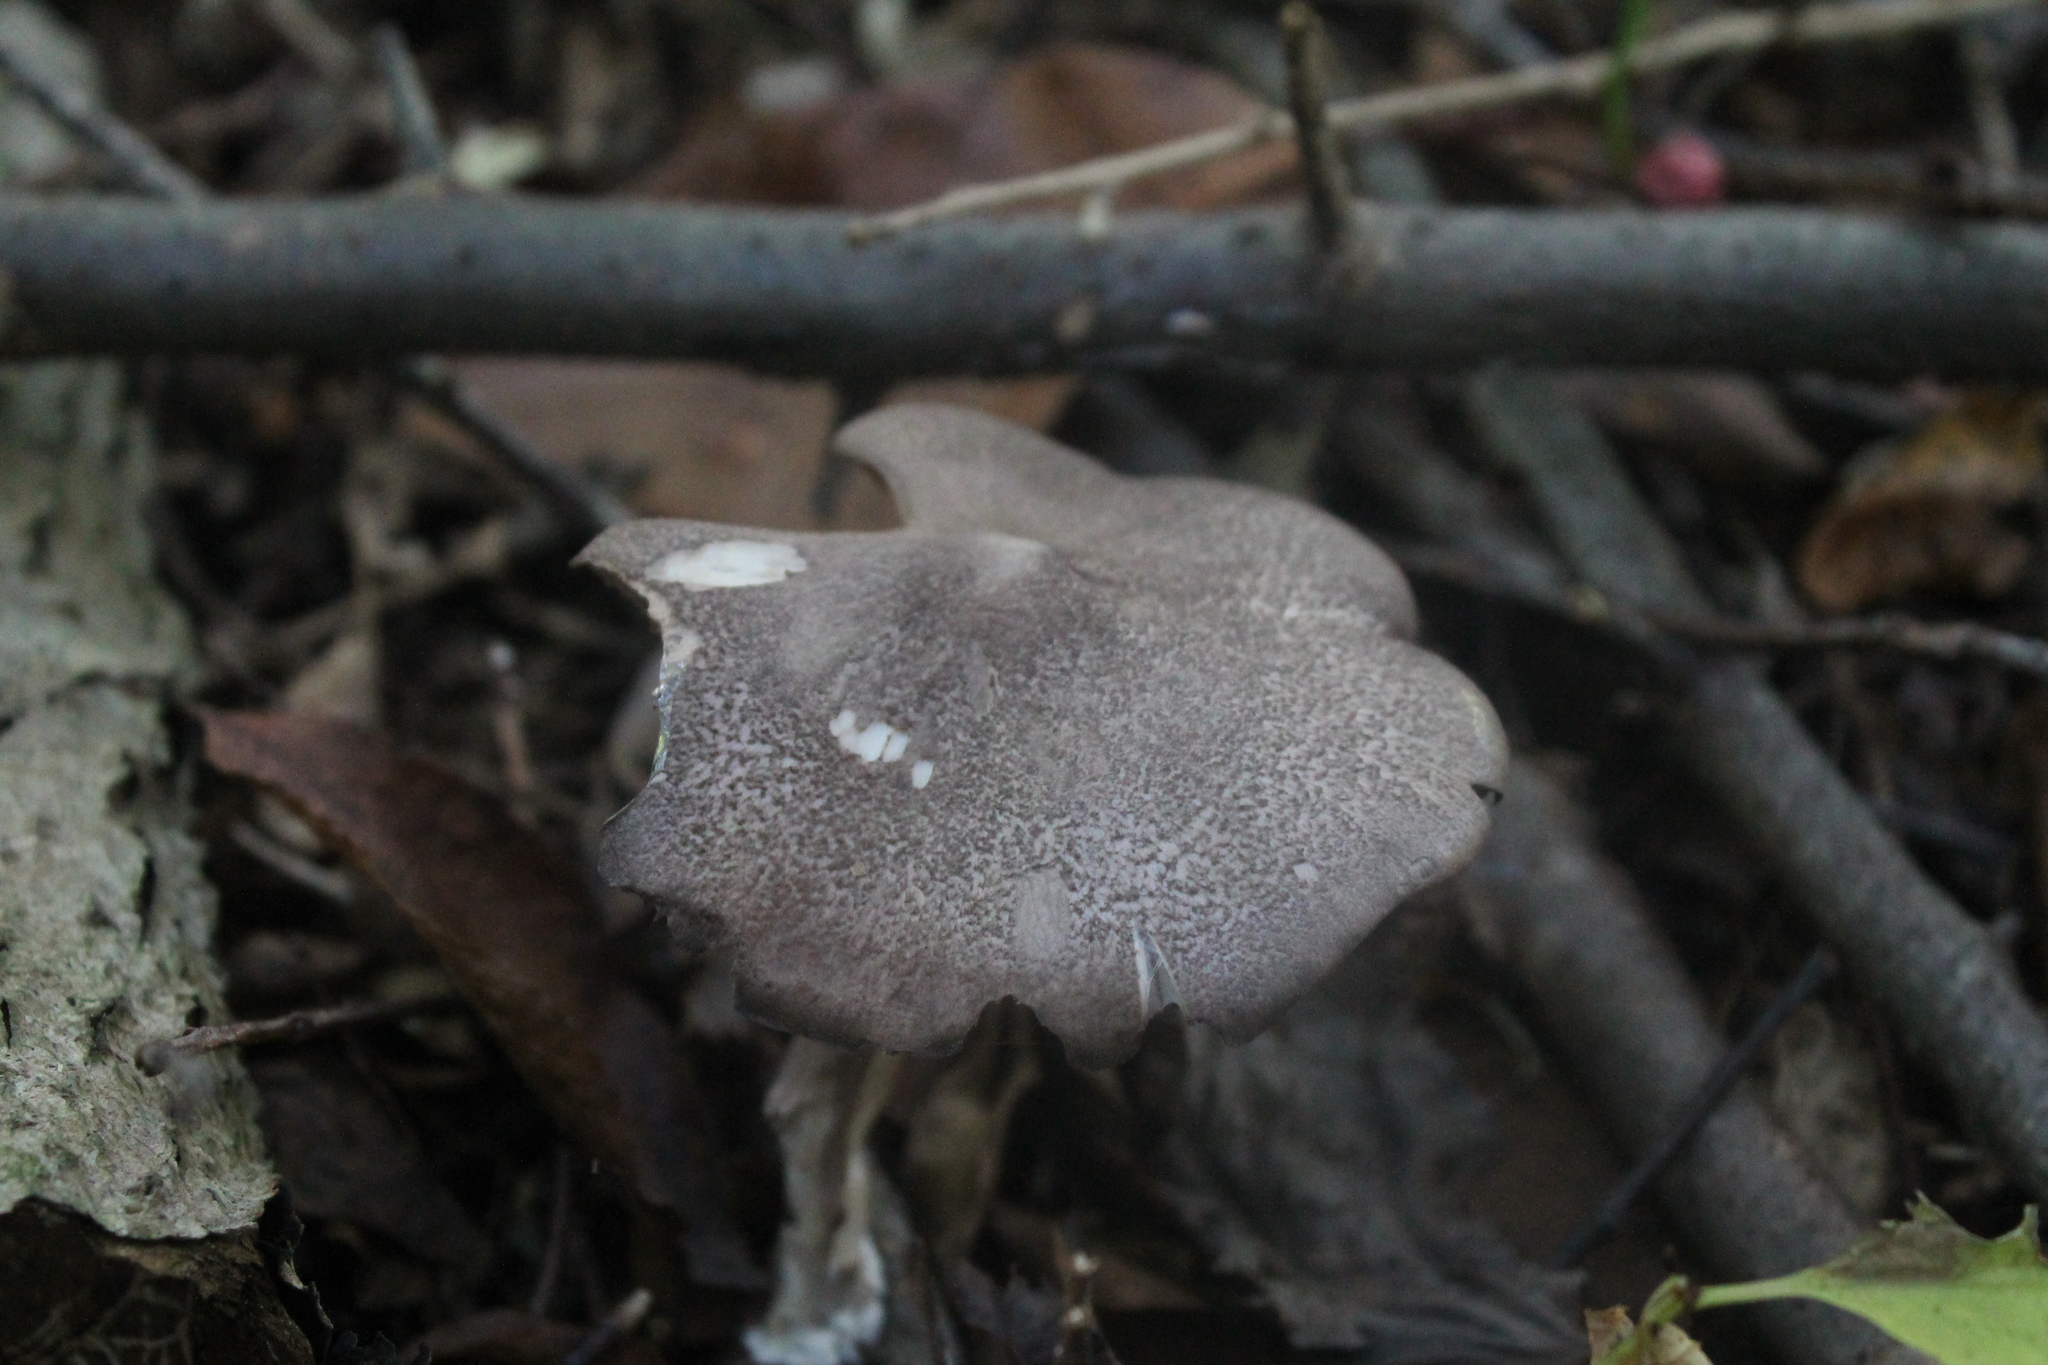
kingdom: Fungi
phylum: Basidiomycota
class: Agaricomycetes
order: Agaricales
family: Entolomataceae
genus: Entoloma
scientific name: Entoloma jubatum
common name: Sepia pinkgill
